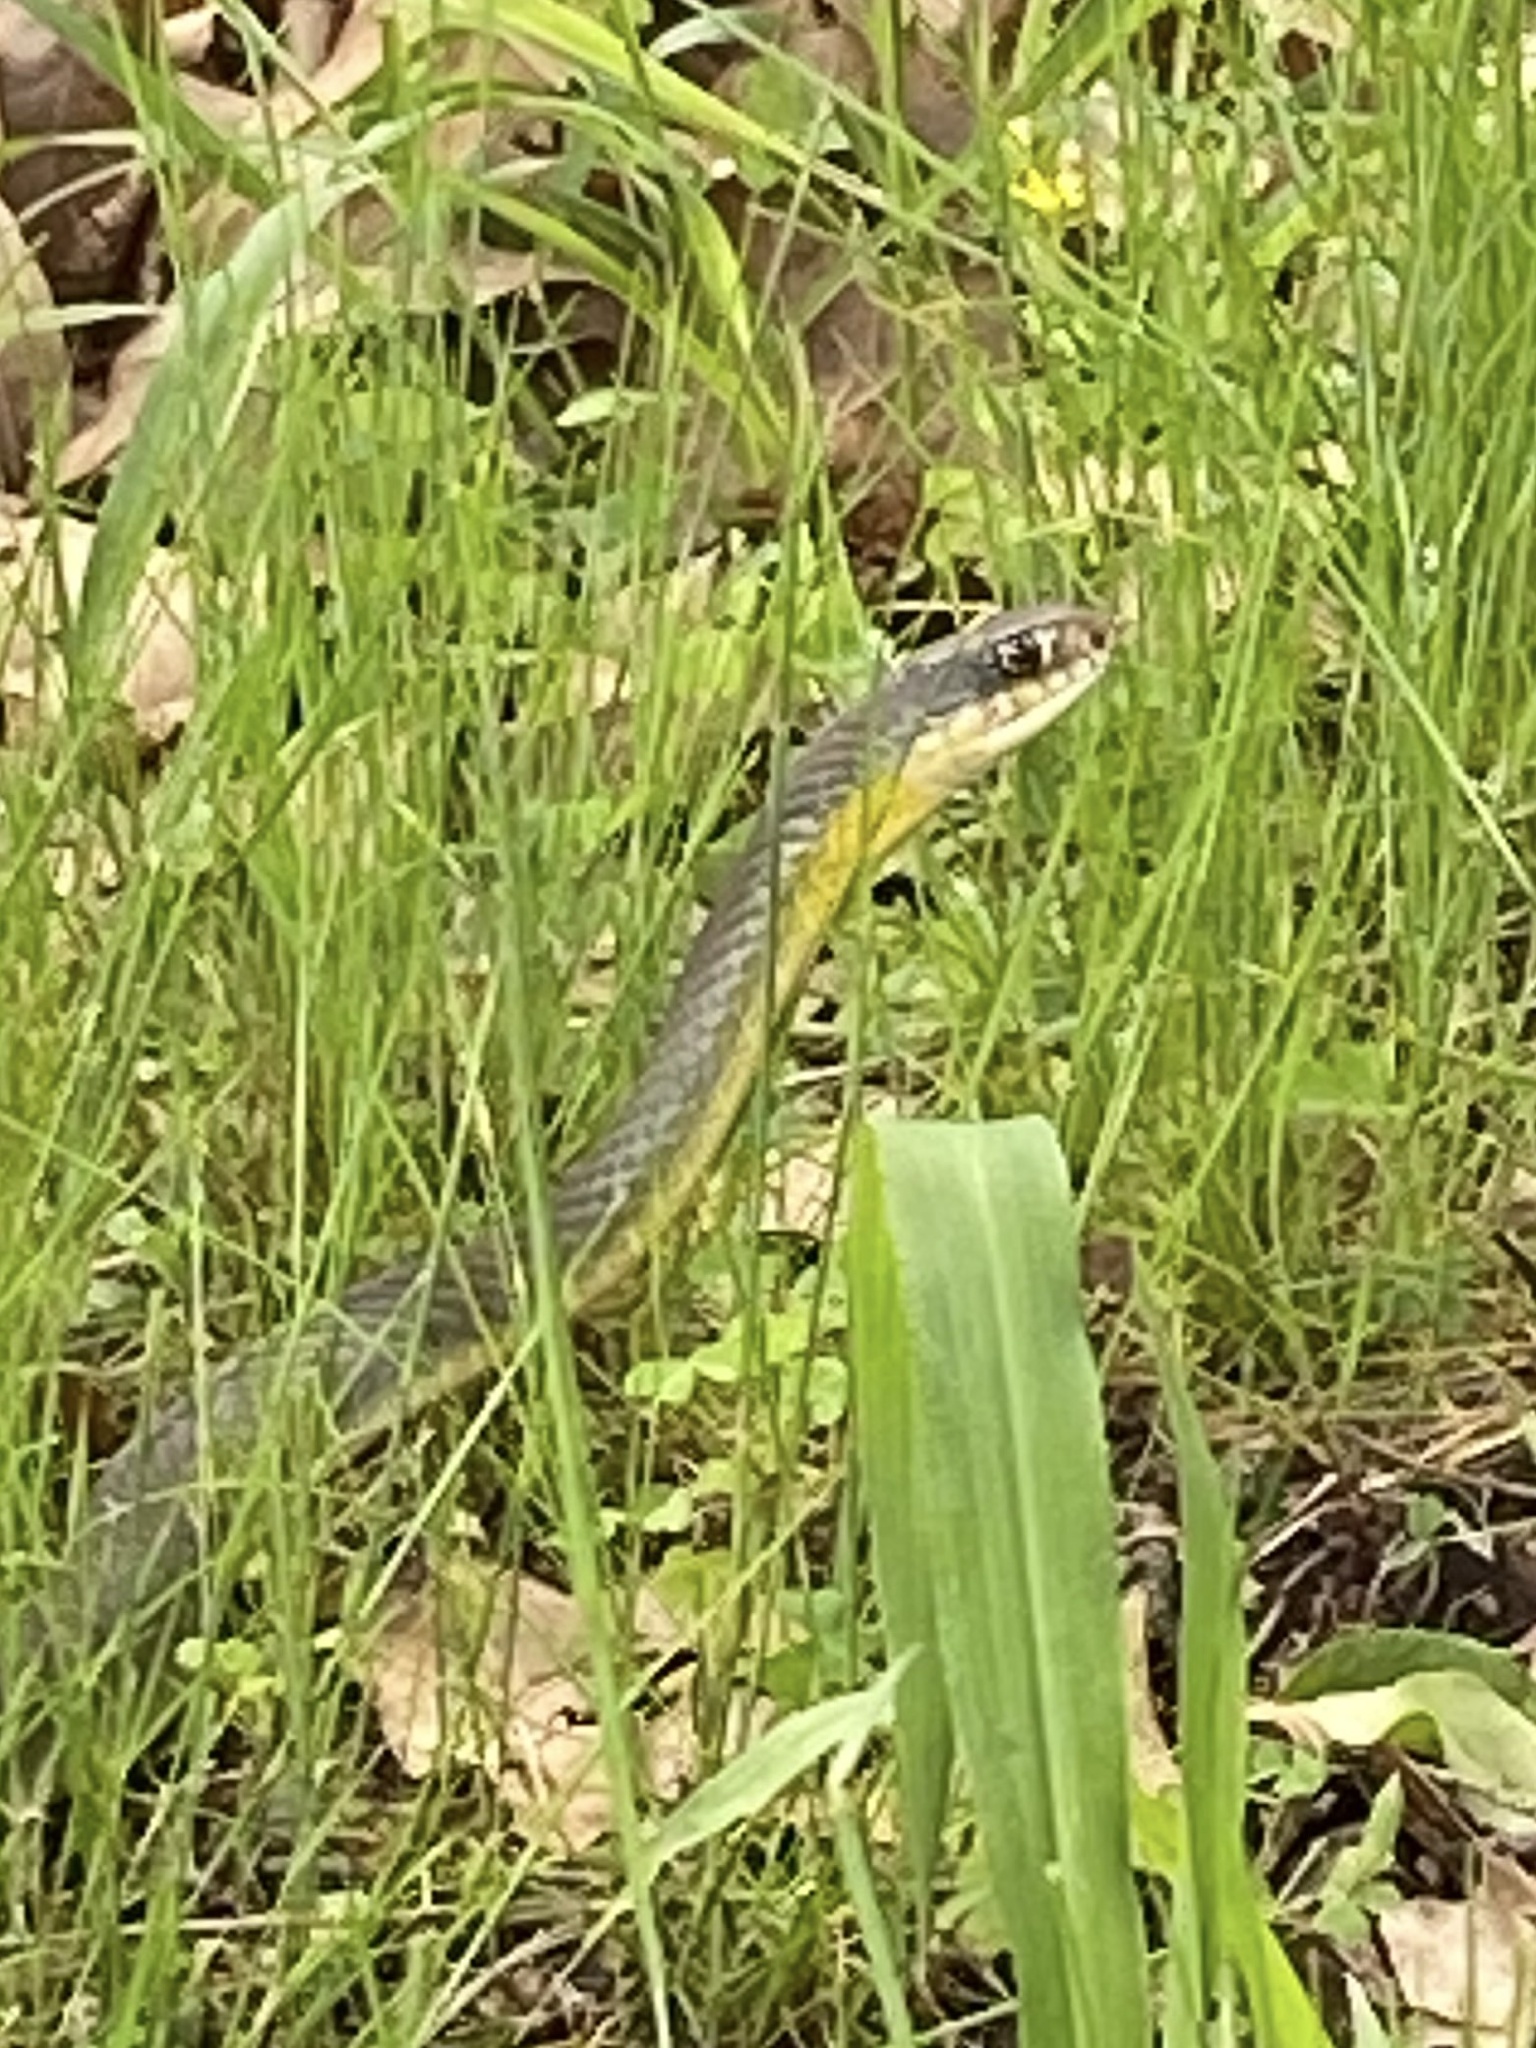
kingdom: Animalia
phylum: Chordata
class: Squamata
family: Colubridae
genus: Coluber
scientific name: Coluber constrictor
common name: Eastern racer
